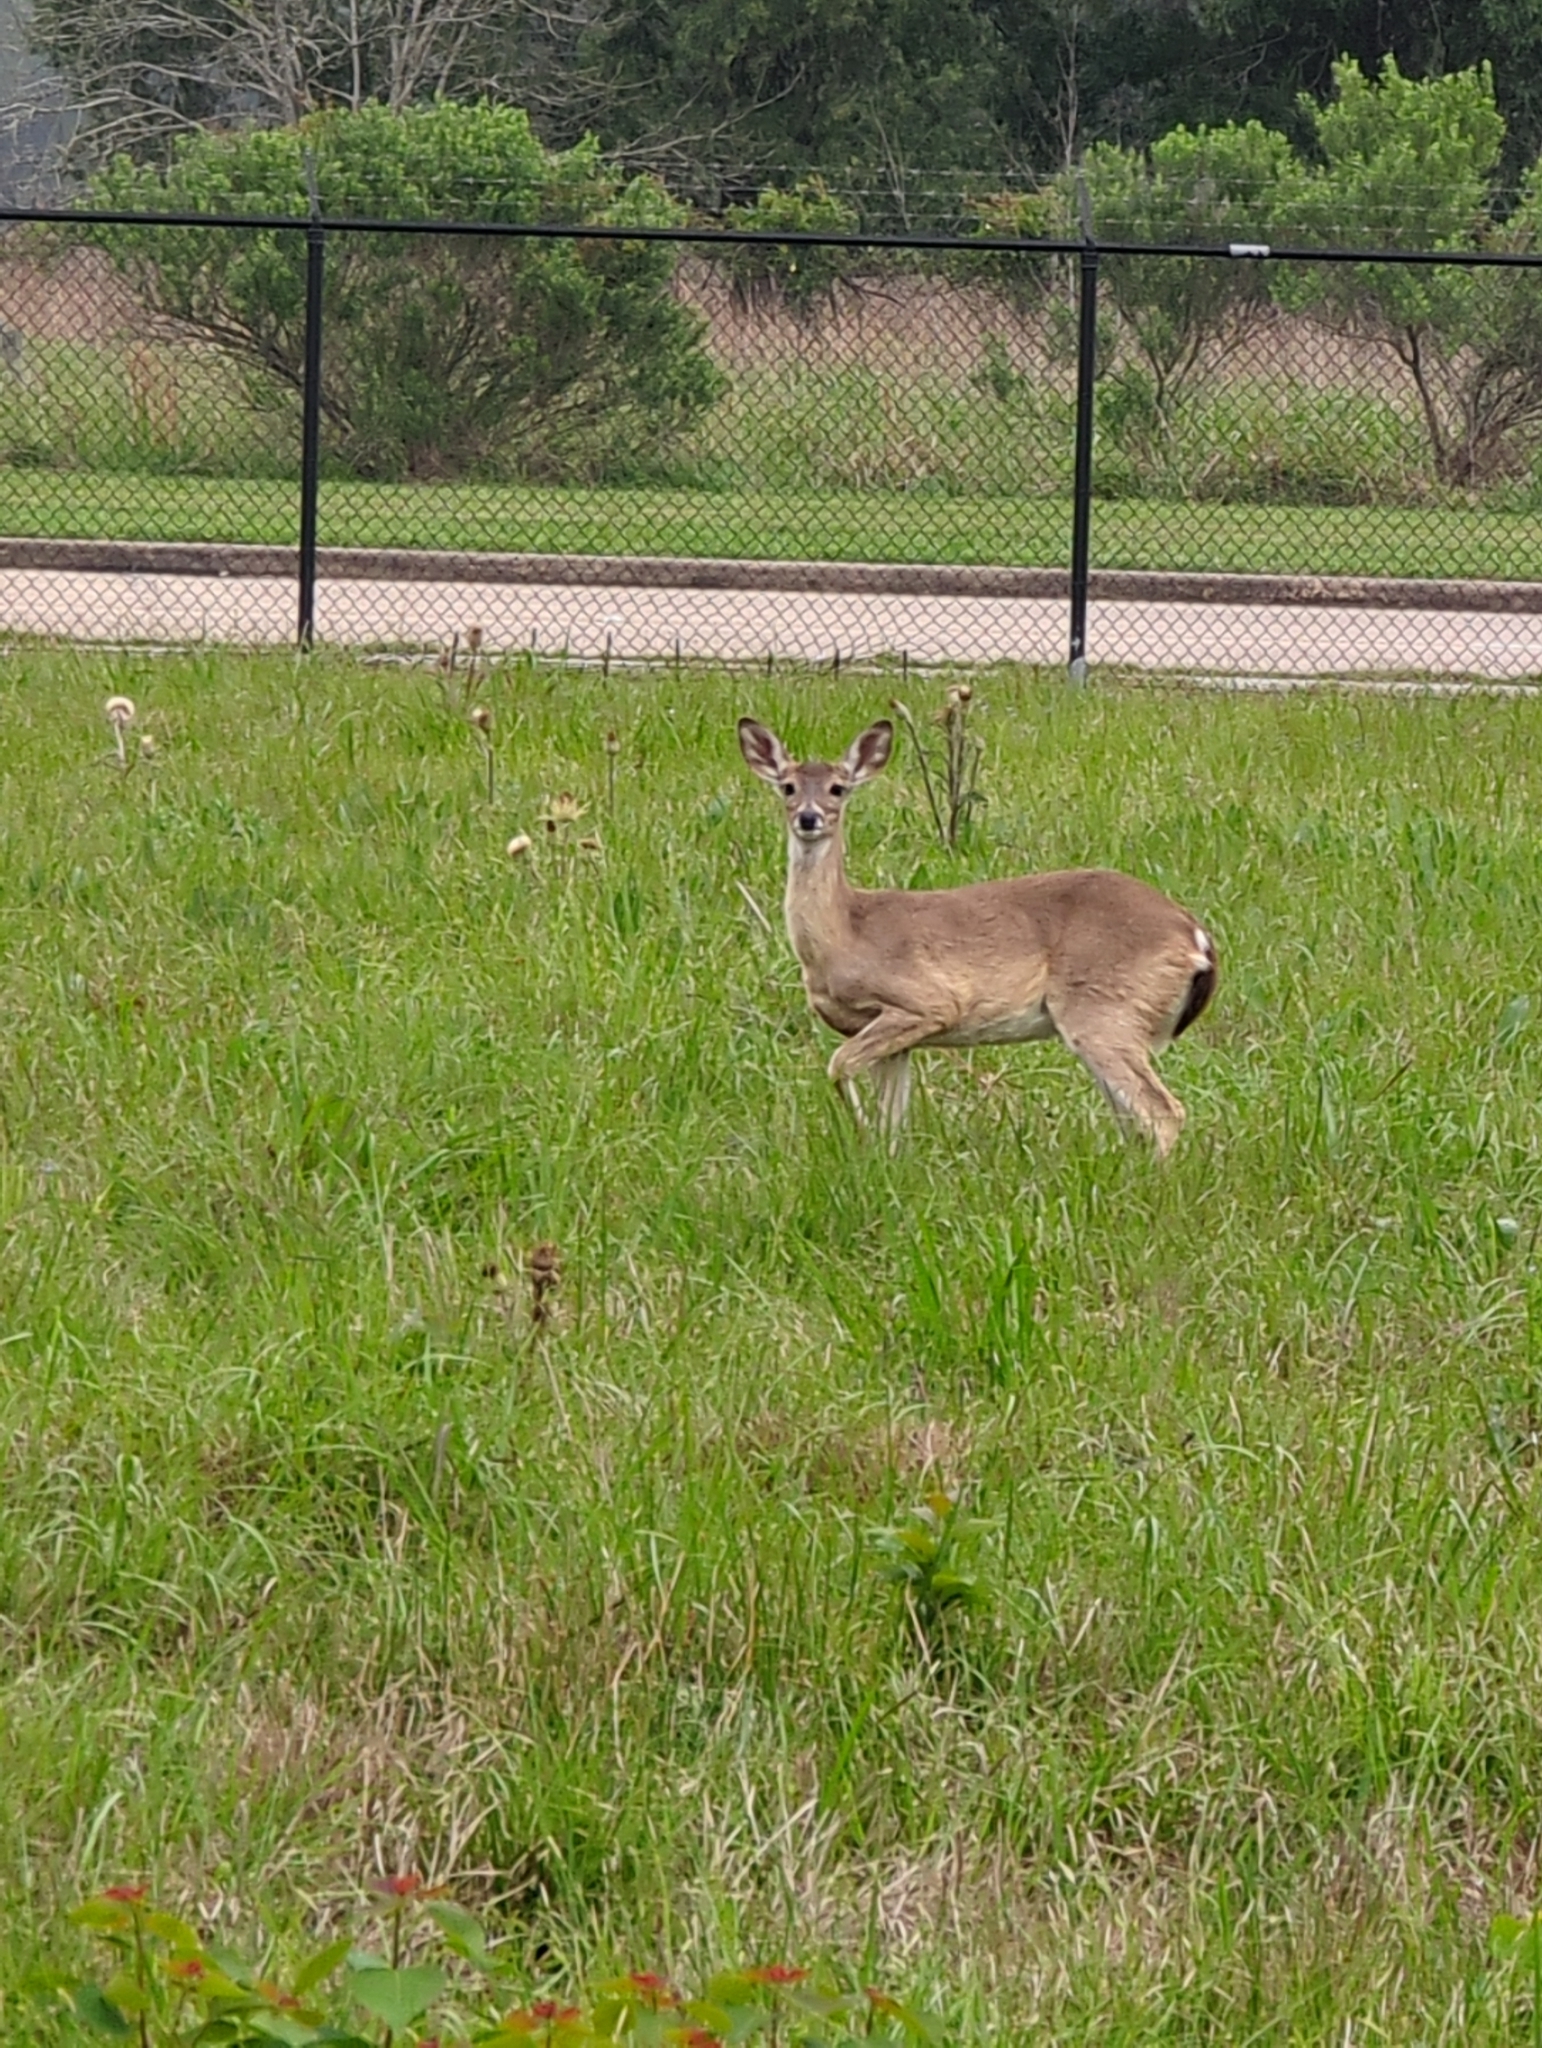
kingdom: Animalia
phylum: Chordata
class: Mammalia
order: Artiodactyla
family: Cervidae
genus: Odocoileus
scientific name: Odocoileus virginianus
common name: White-tailed deer
